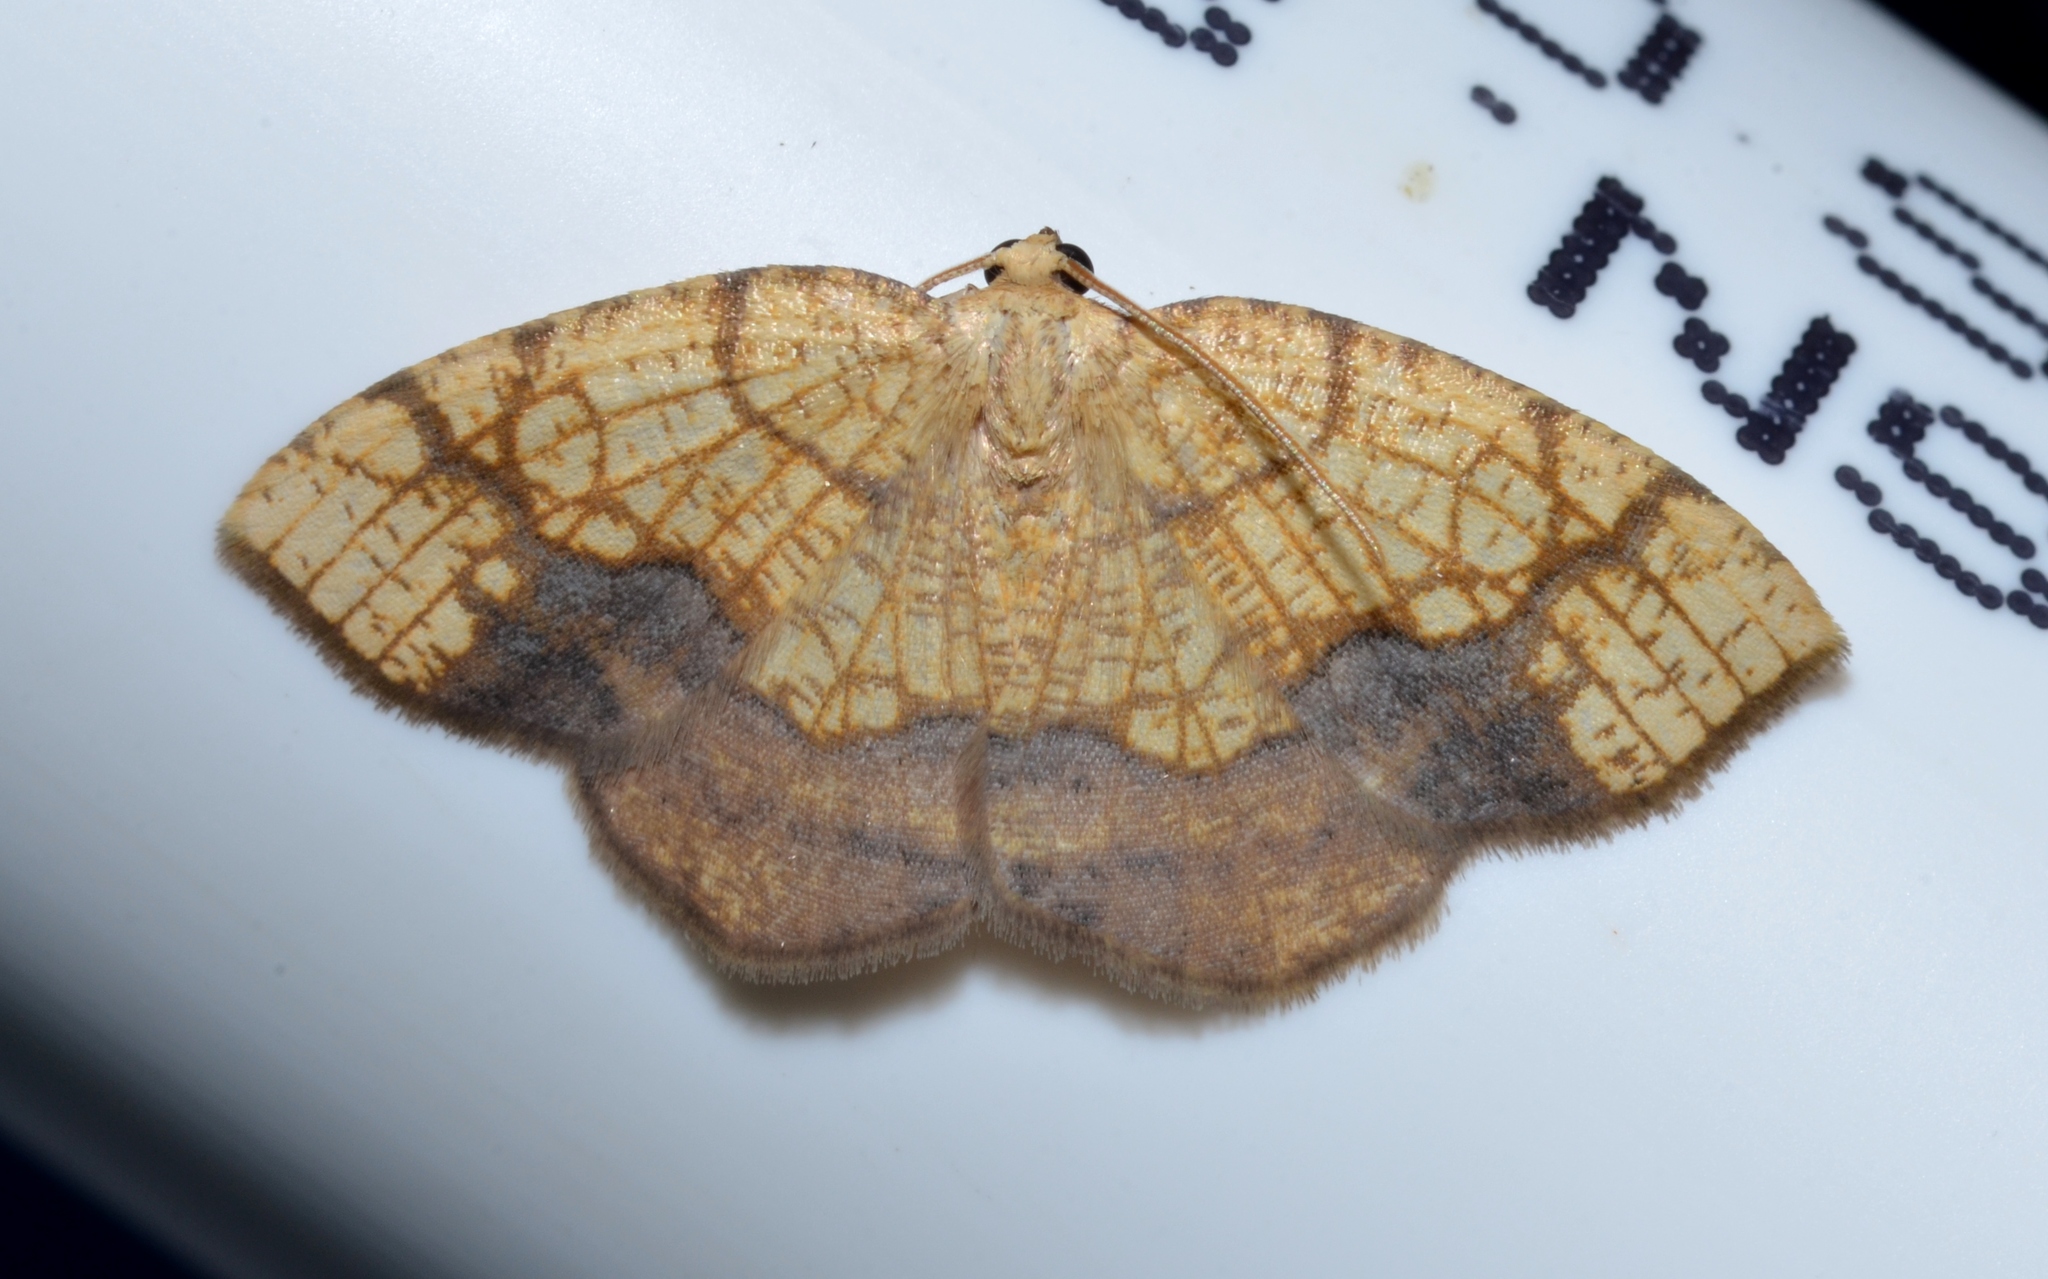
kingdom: Animalia
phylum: Arthropoda
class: Insecta
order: Lepidoptera
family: Geometridae
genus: Nematocampa
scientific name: Nematocampa resistaria
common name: Horned spanworm moth
